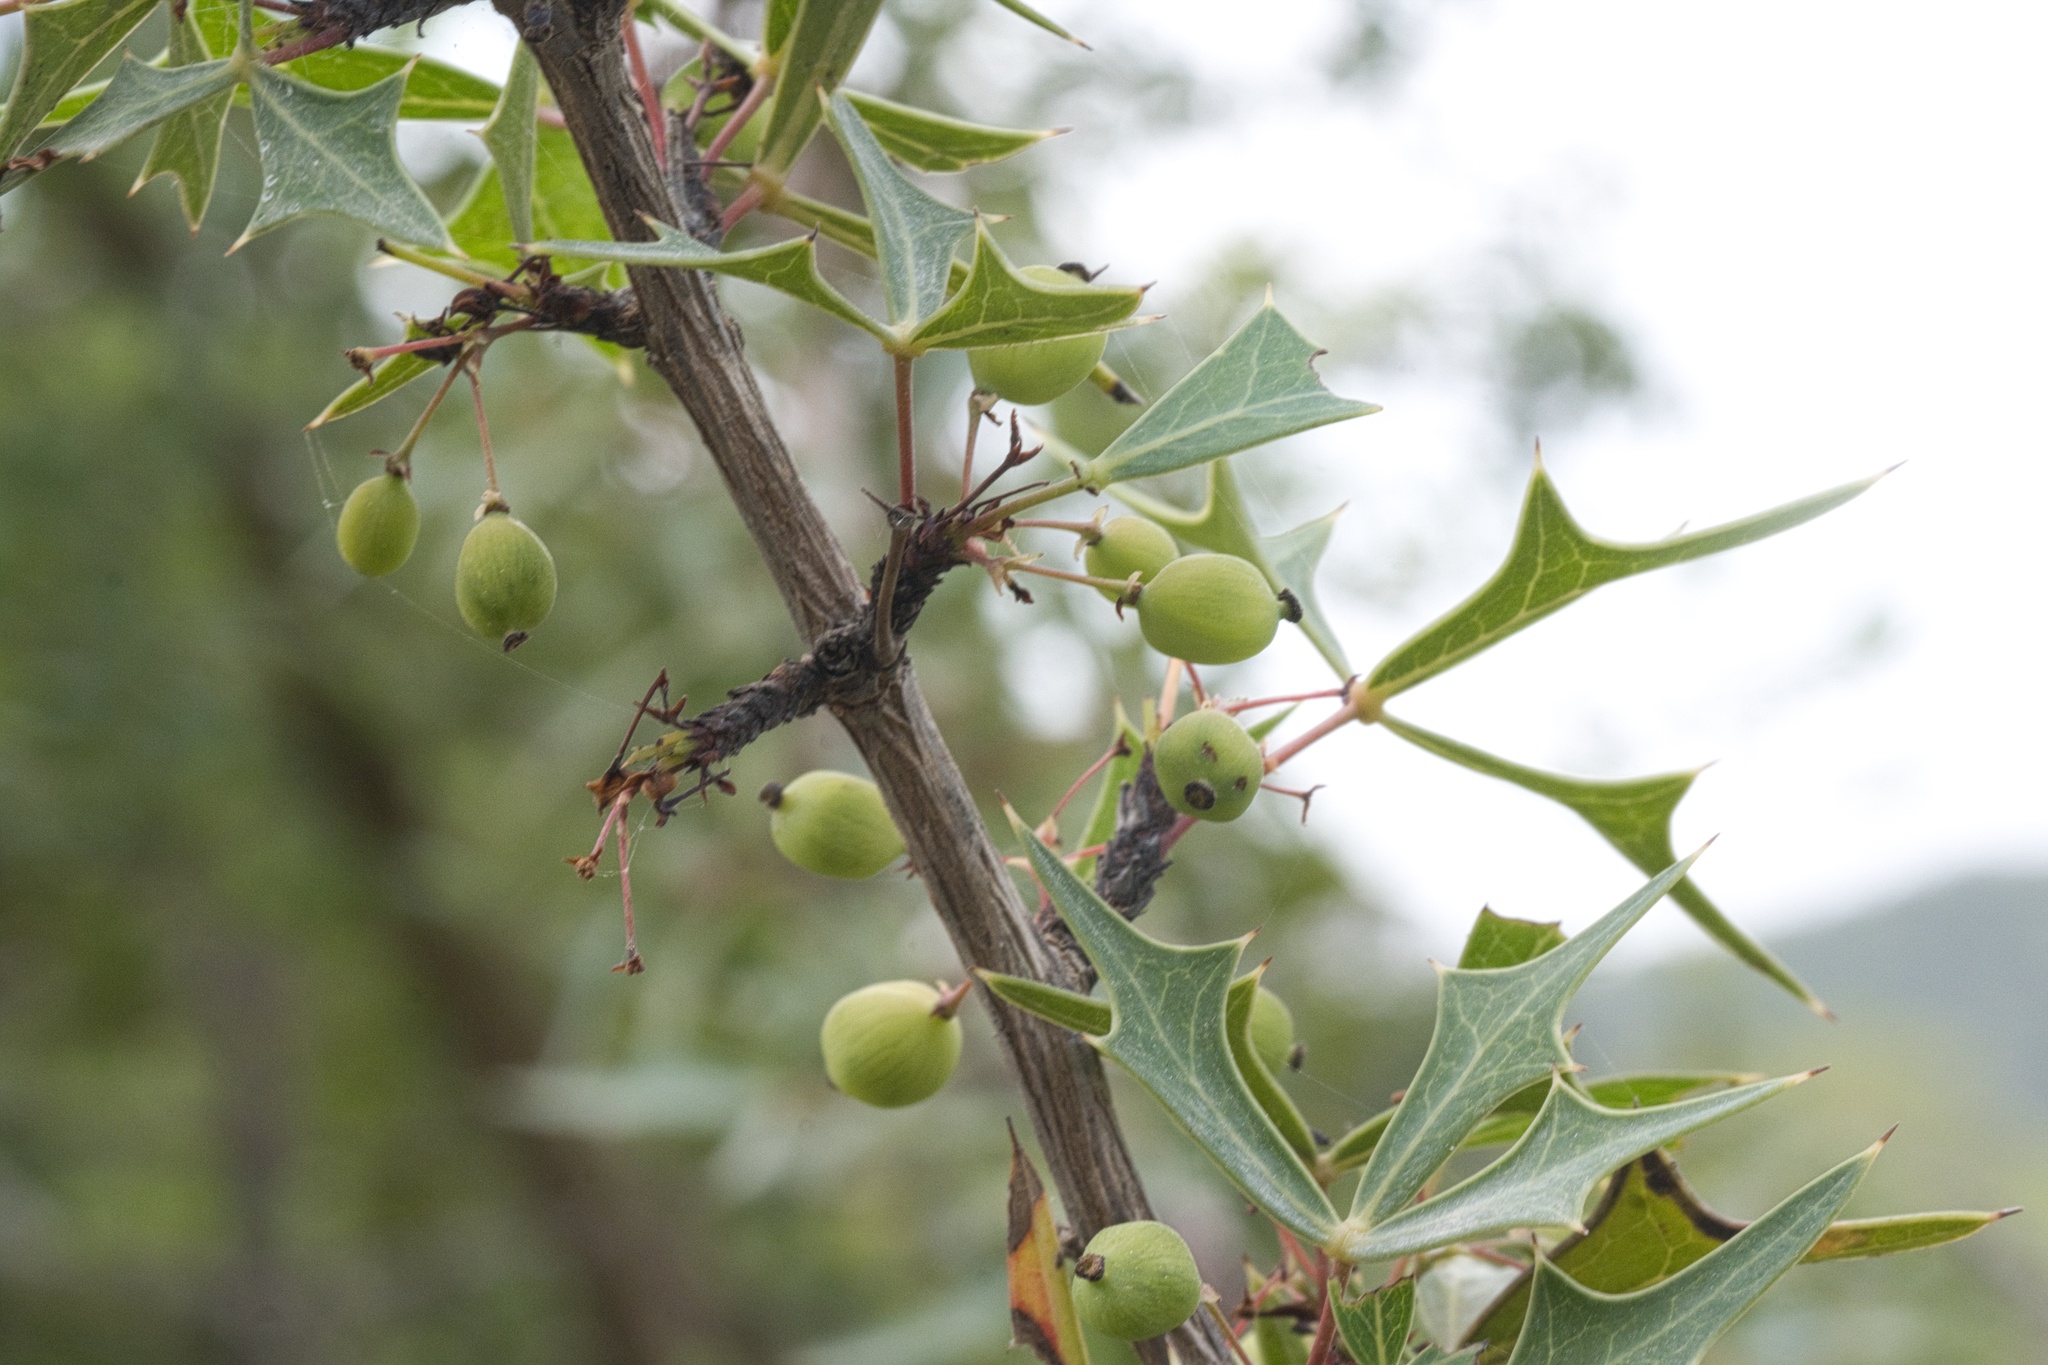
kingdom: Plantae
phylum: Tracheophyta
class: Magnoliopsida
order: Ranunculales
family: Berberidaceae
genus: Alloberberis
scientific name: Alloberberis trifoliolata
